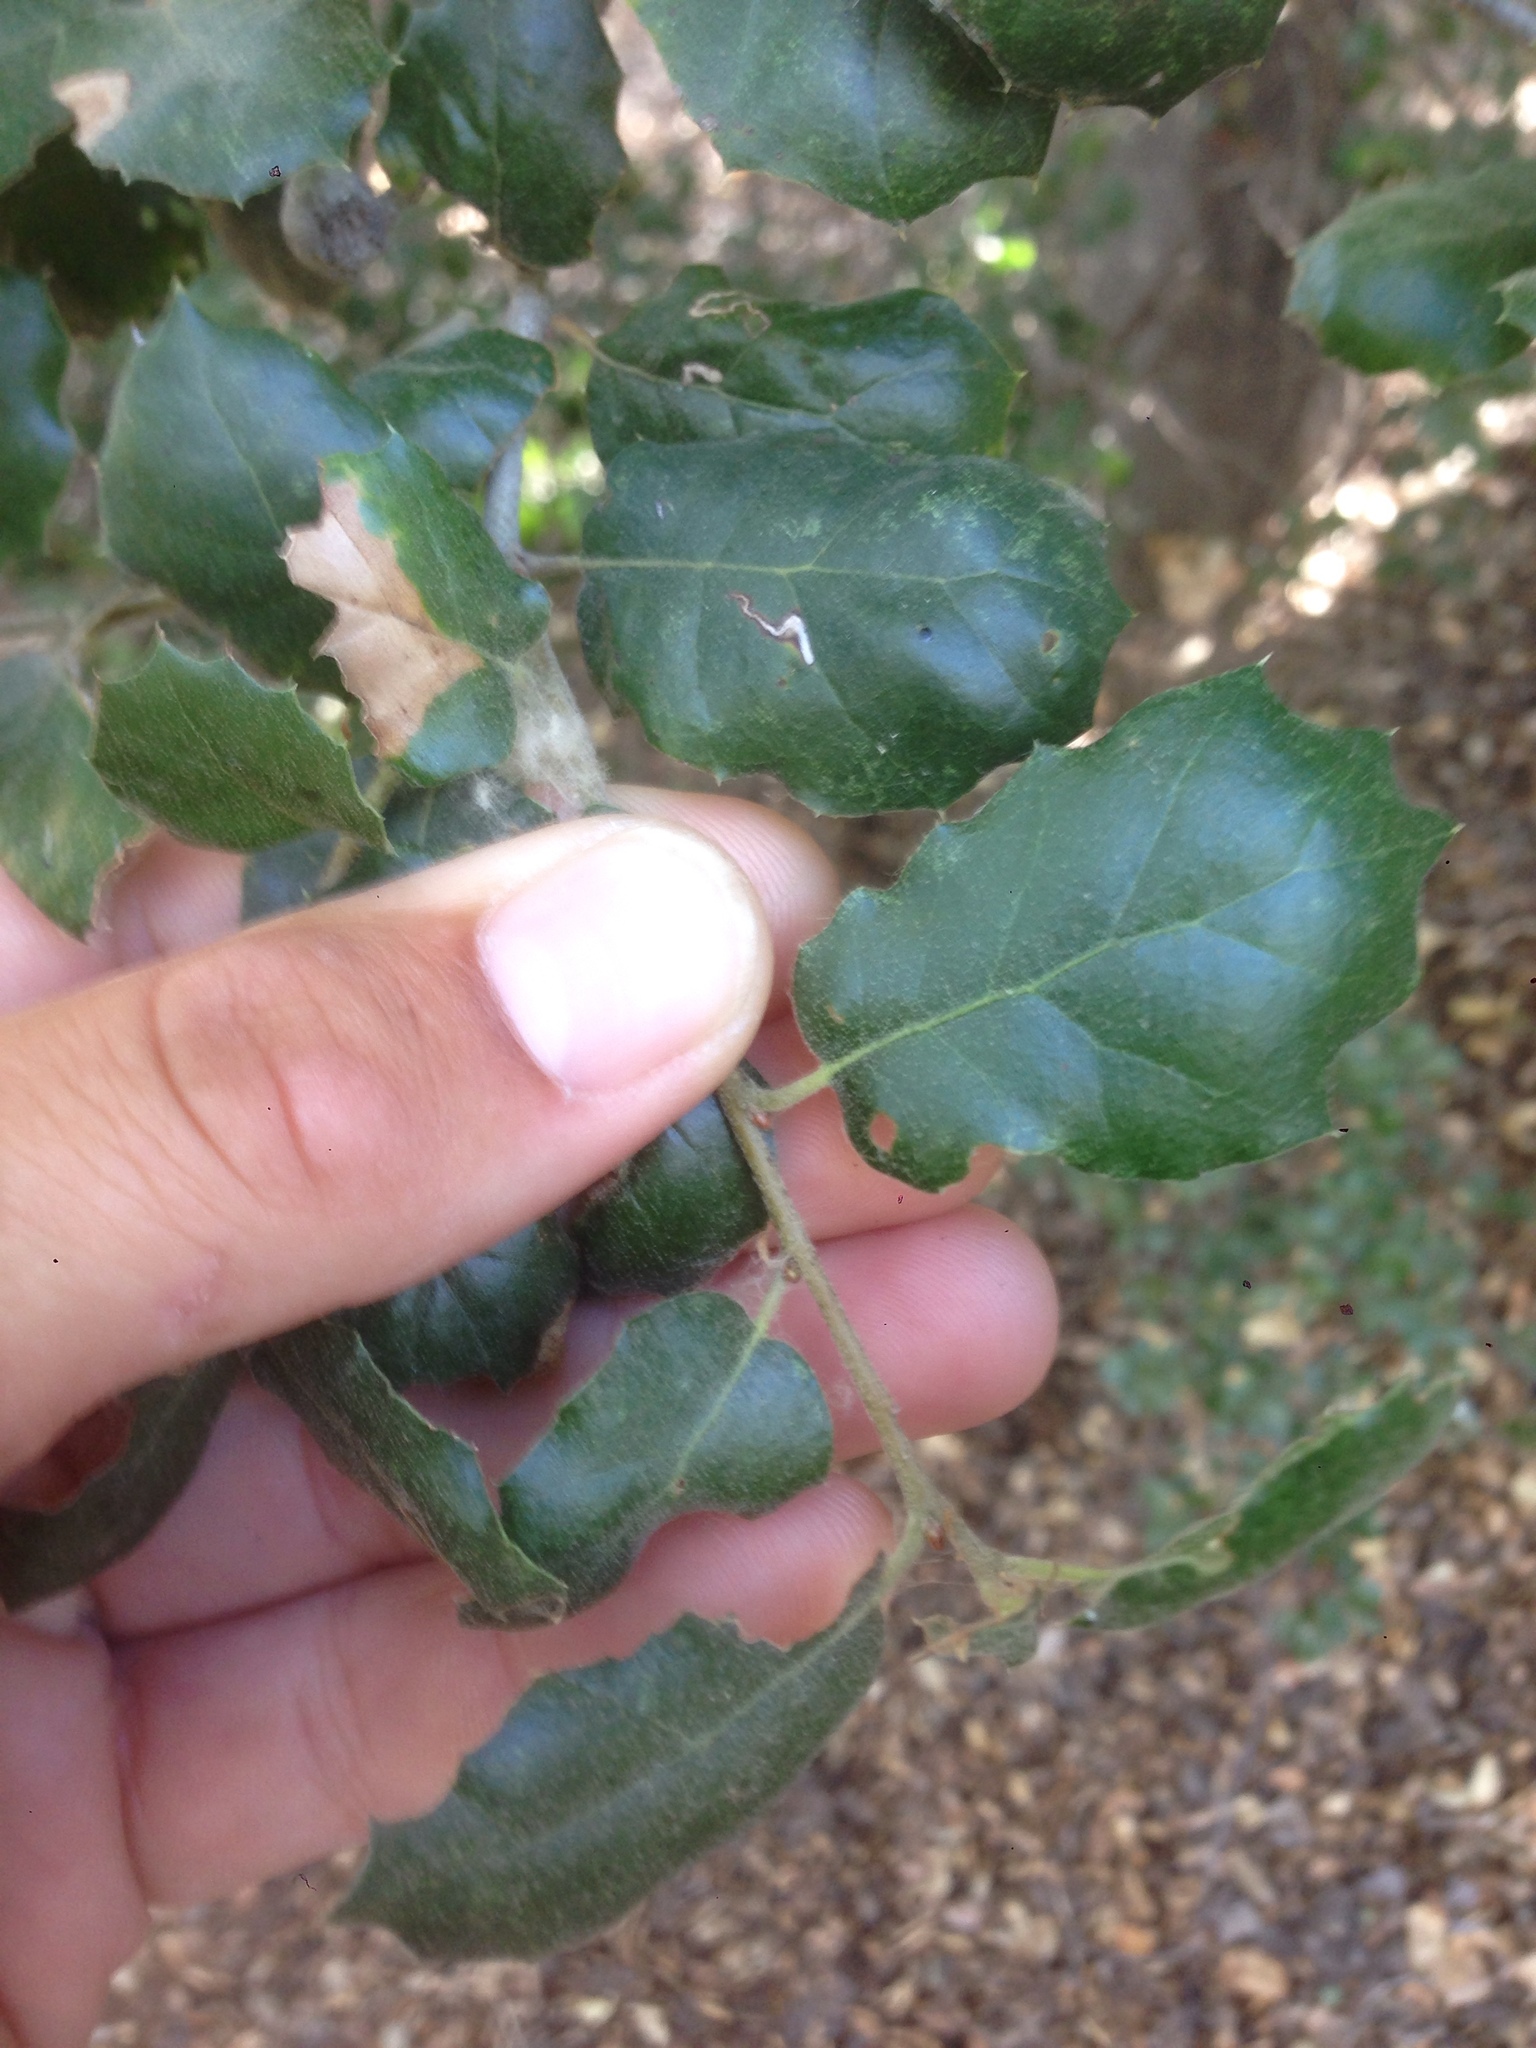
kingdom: Plantae
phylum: Tracheophyta
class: Magnoliopsida
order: Fagales
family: Fagaceae
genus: Quercus
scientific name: Quercus agrifolia
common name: California live oak
